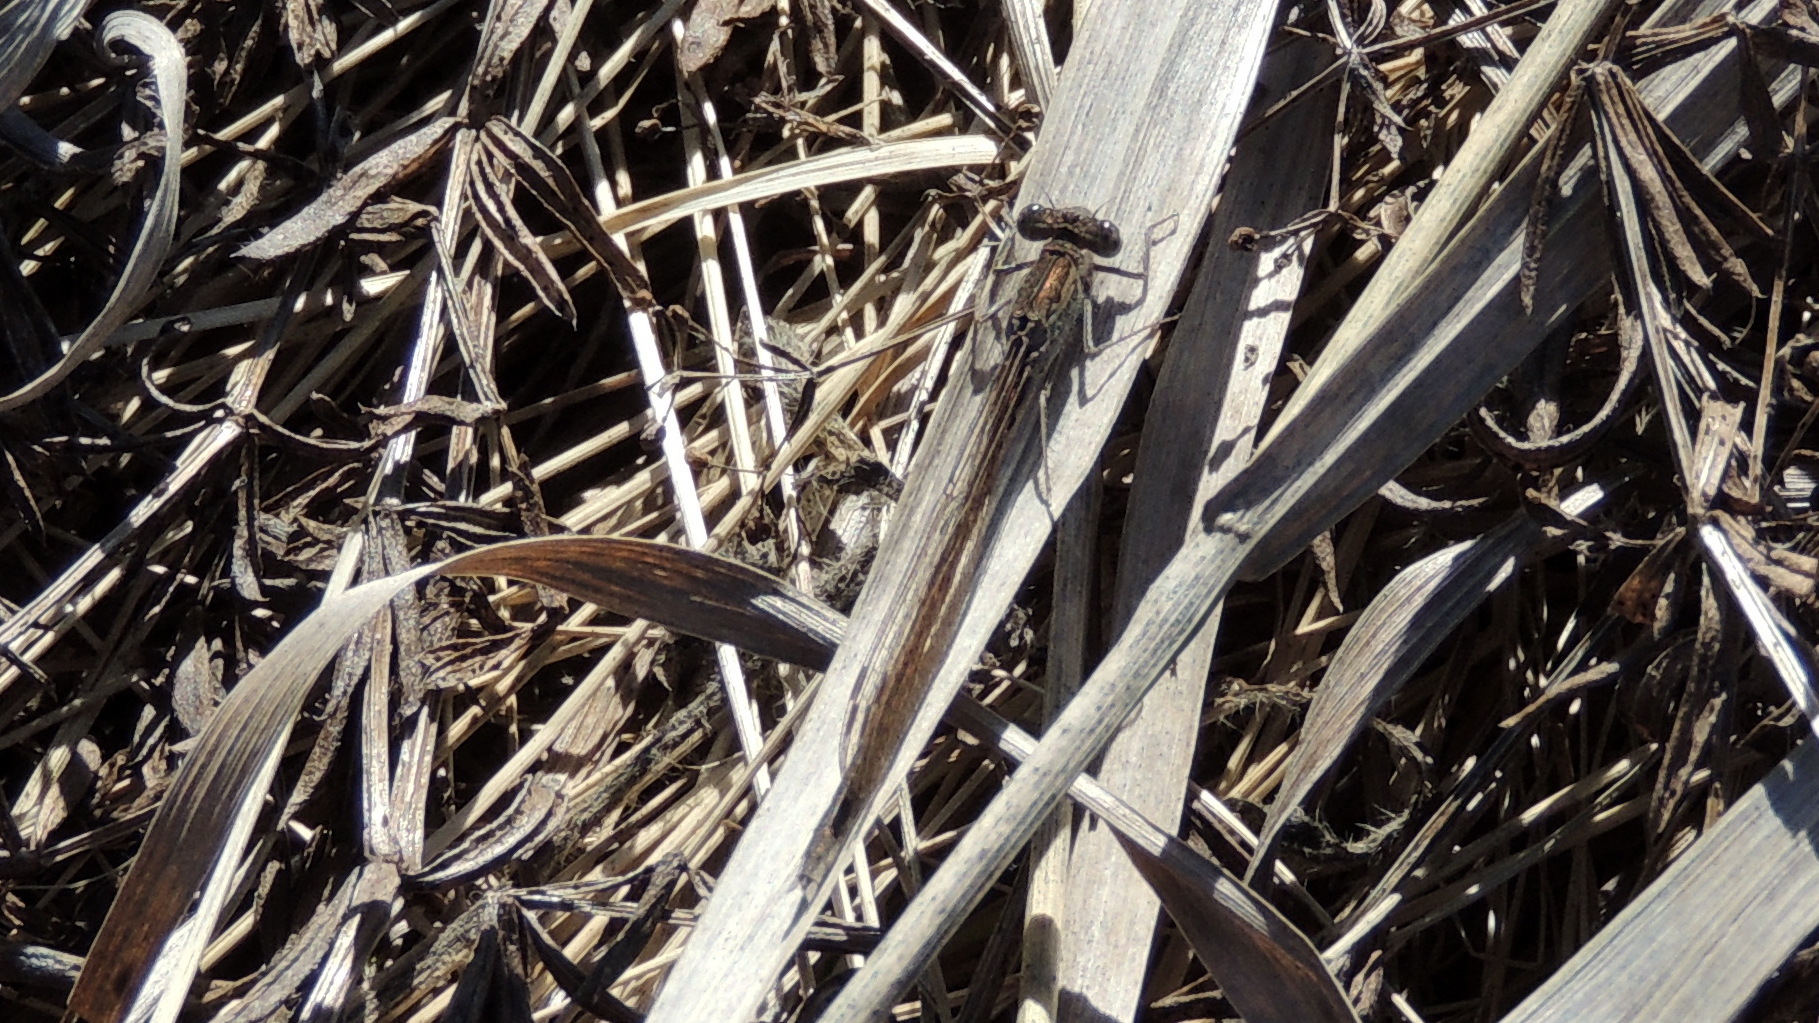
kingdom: Animalia
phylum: Arthropoda
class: Insecta
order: Odonata
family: Lestidae
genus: Sympecma
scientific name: Sympecma paedisca
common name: Siberian winter damsel
